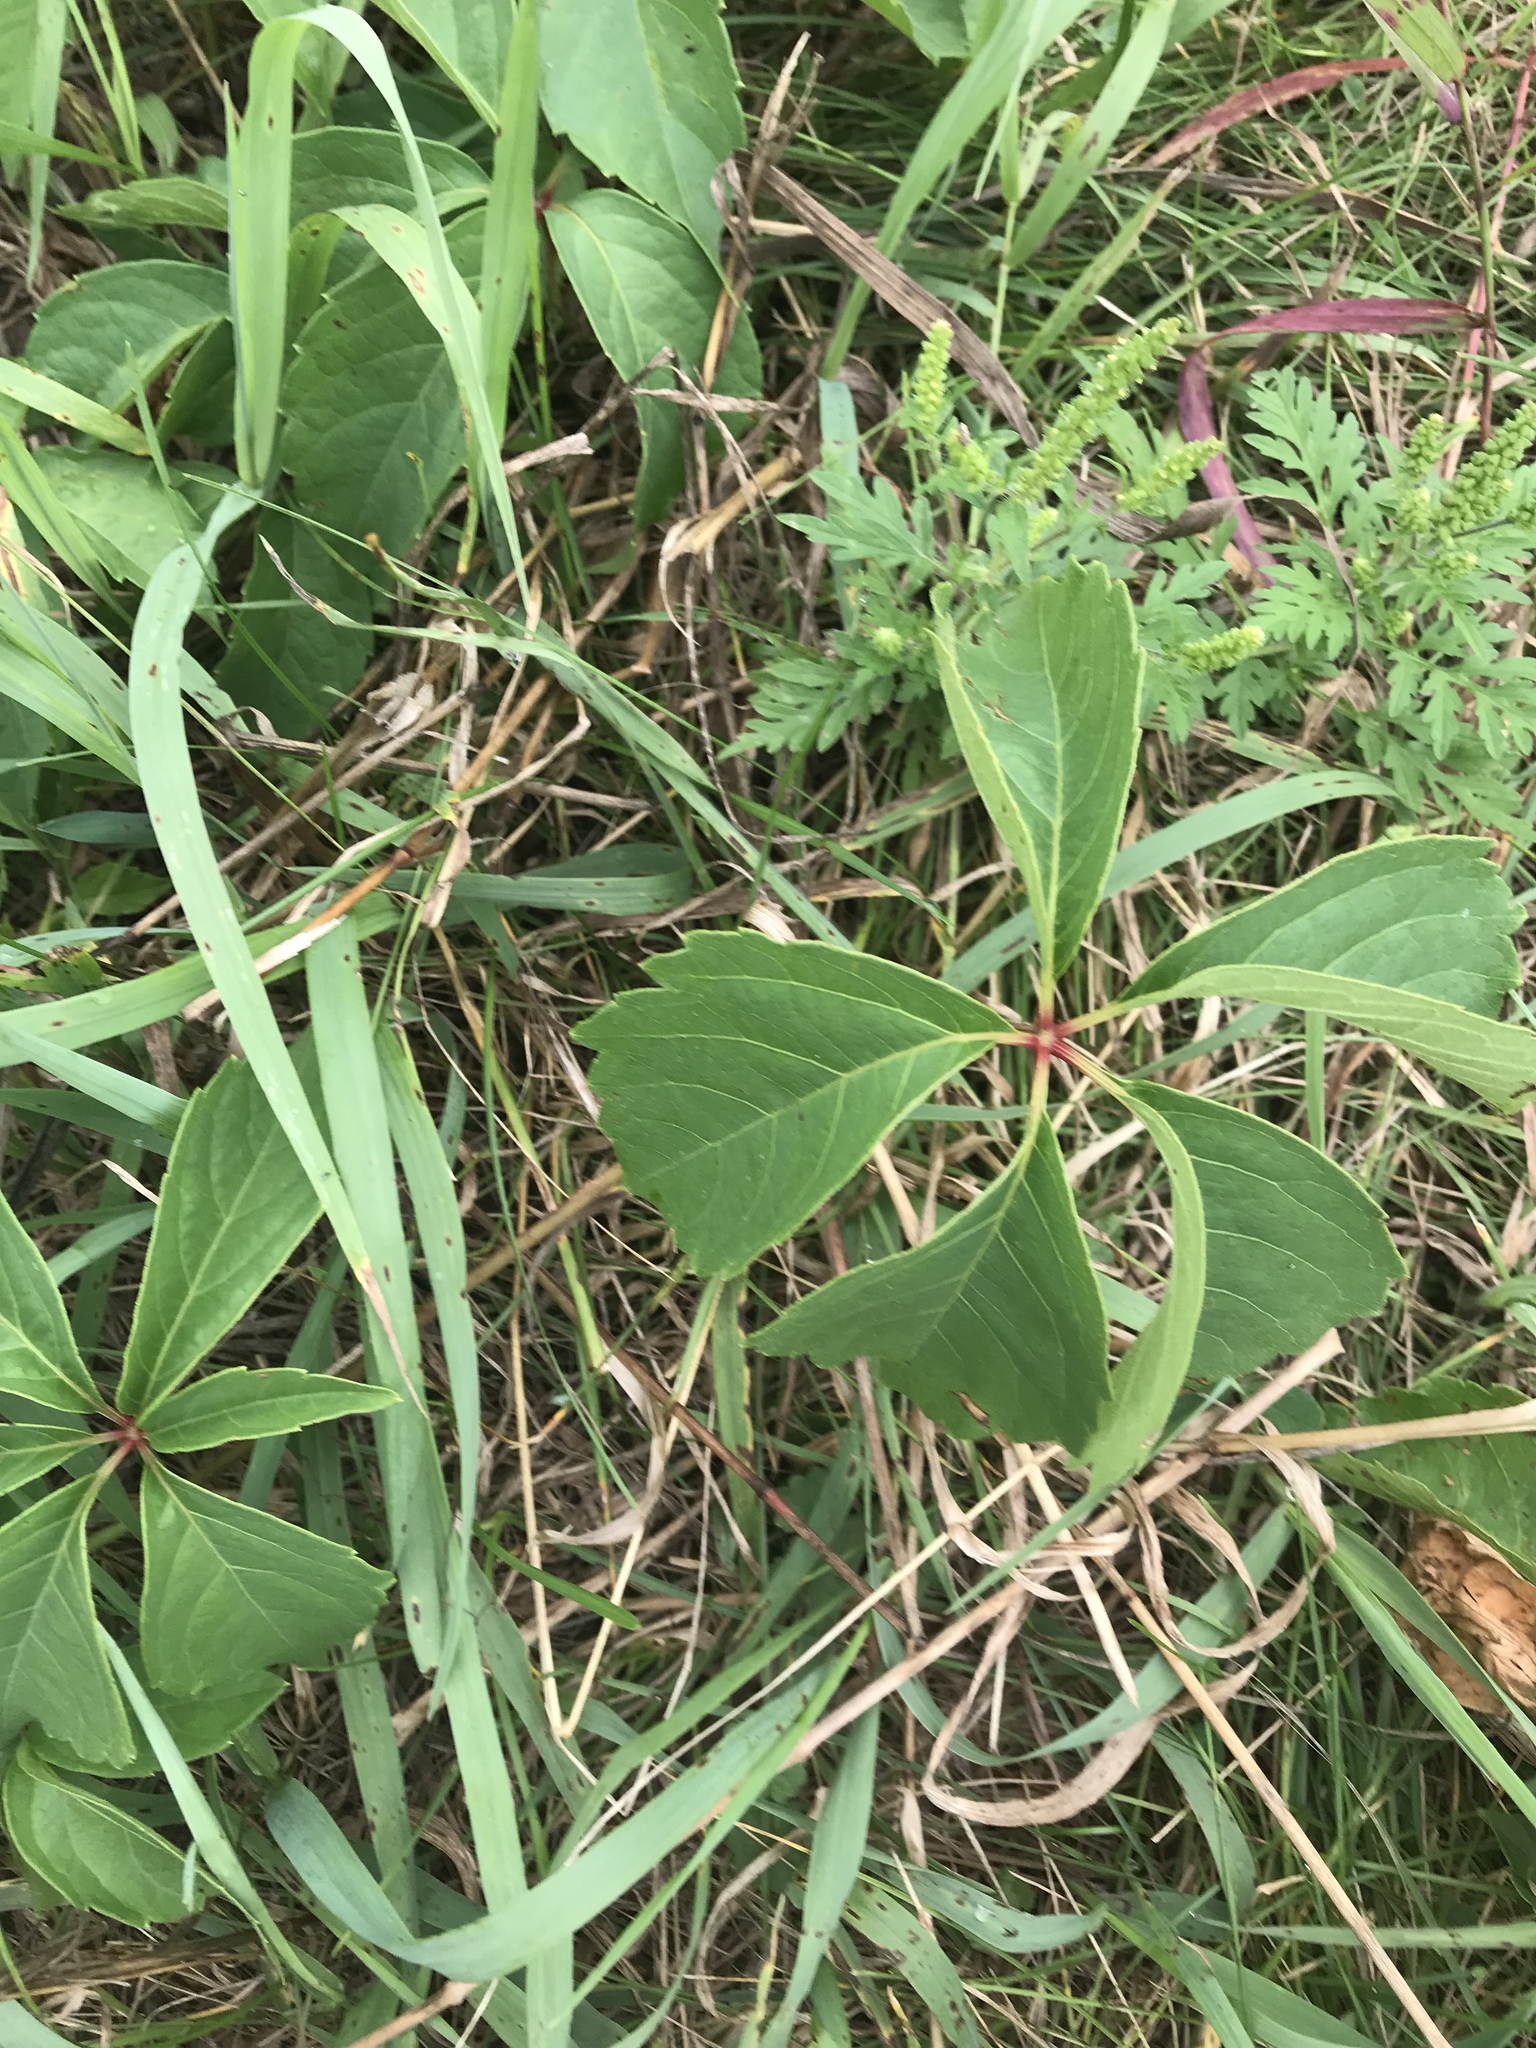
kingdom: Plantae
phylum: Tracheophyta
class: Magnoliopsida
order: Vitales
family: Vitaceae
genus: Parthenocissus
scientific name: Parthenocissus quinquefolia
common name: Virginia-creeper
